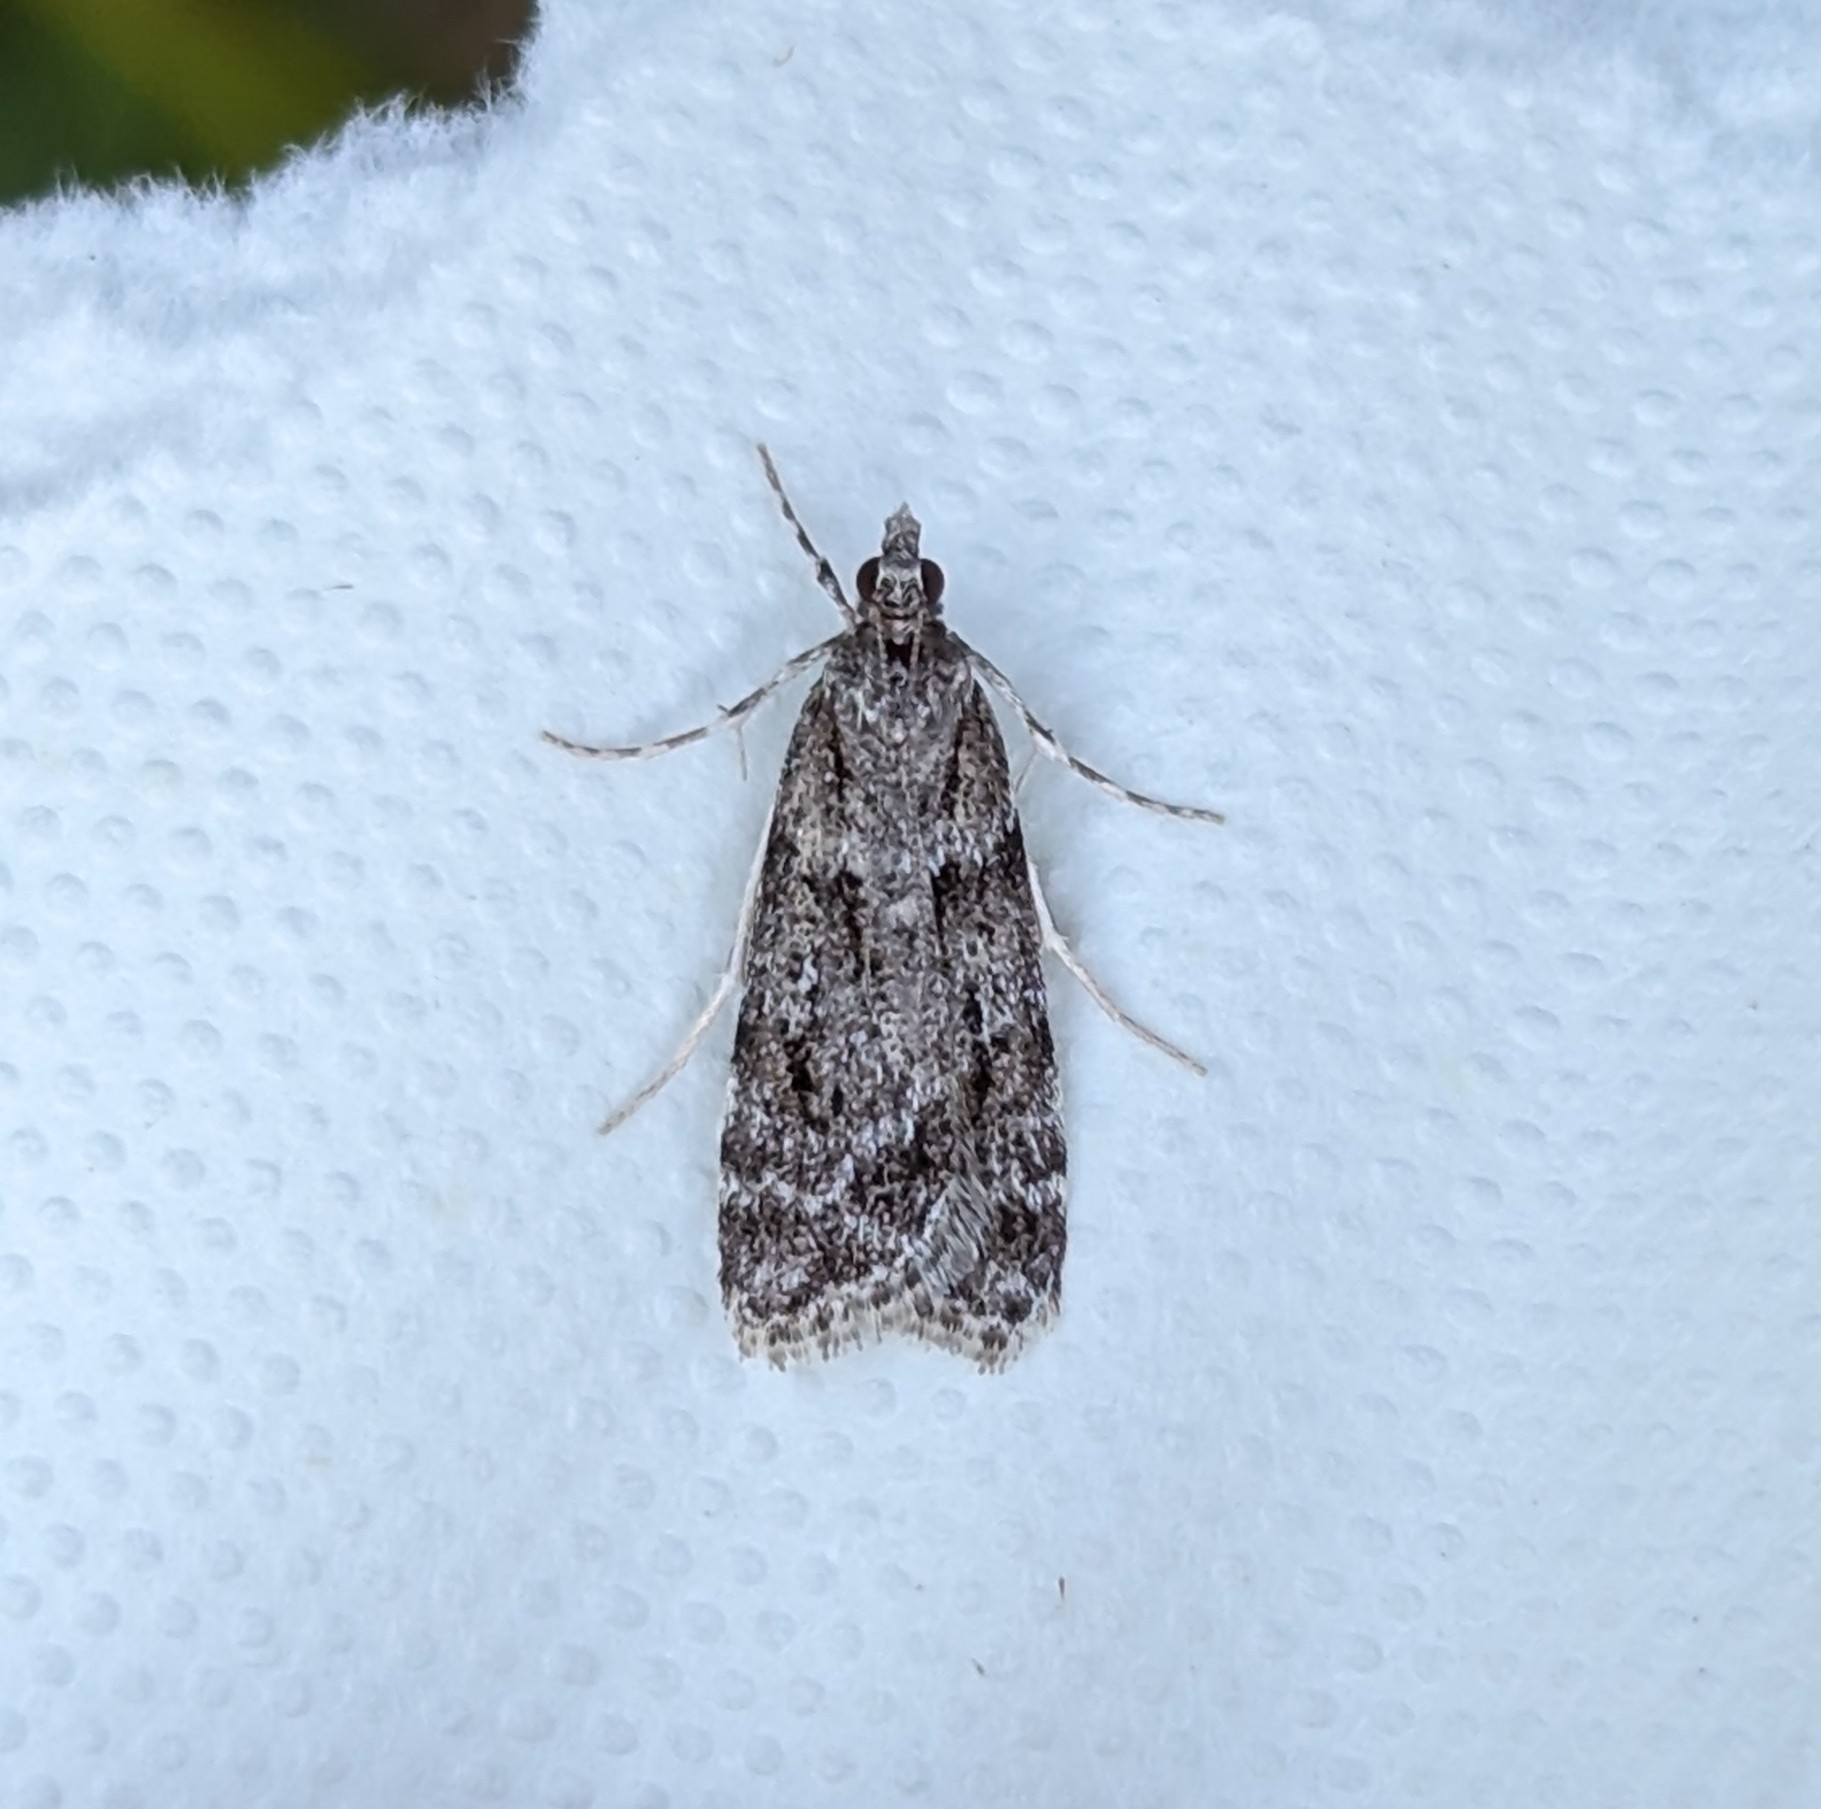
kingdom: Animalia
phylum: Arthropoda
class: Insecta
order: Lepidoptera
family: Crambidae
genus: Scoparia
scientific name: Scoparia biplagialis
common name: Double-striped scoparia moth
